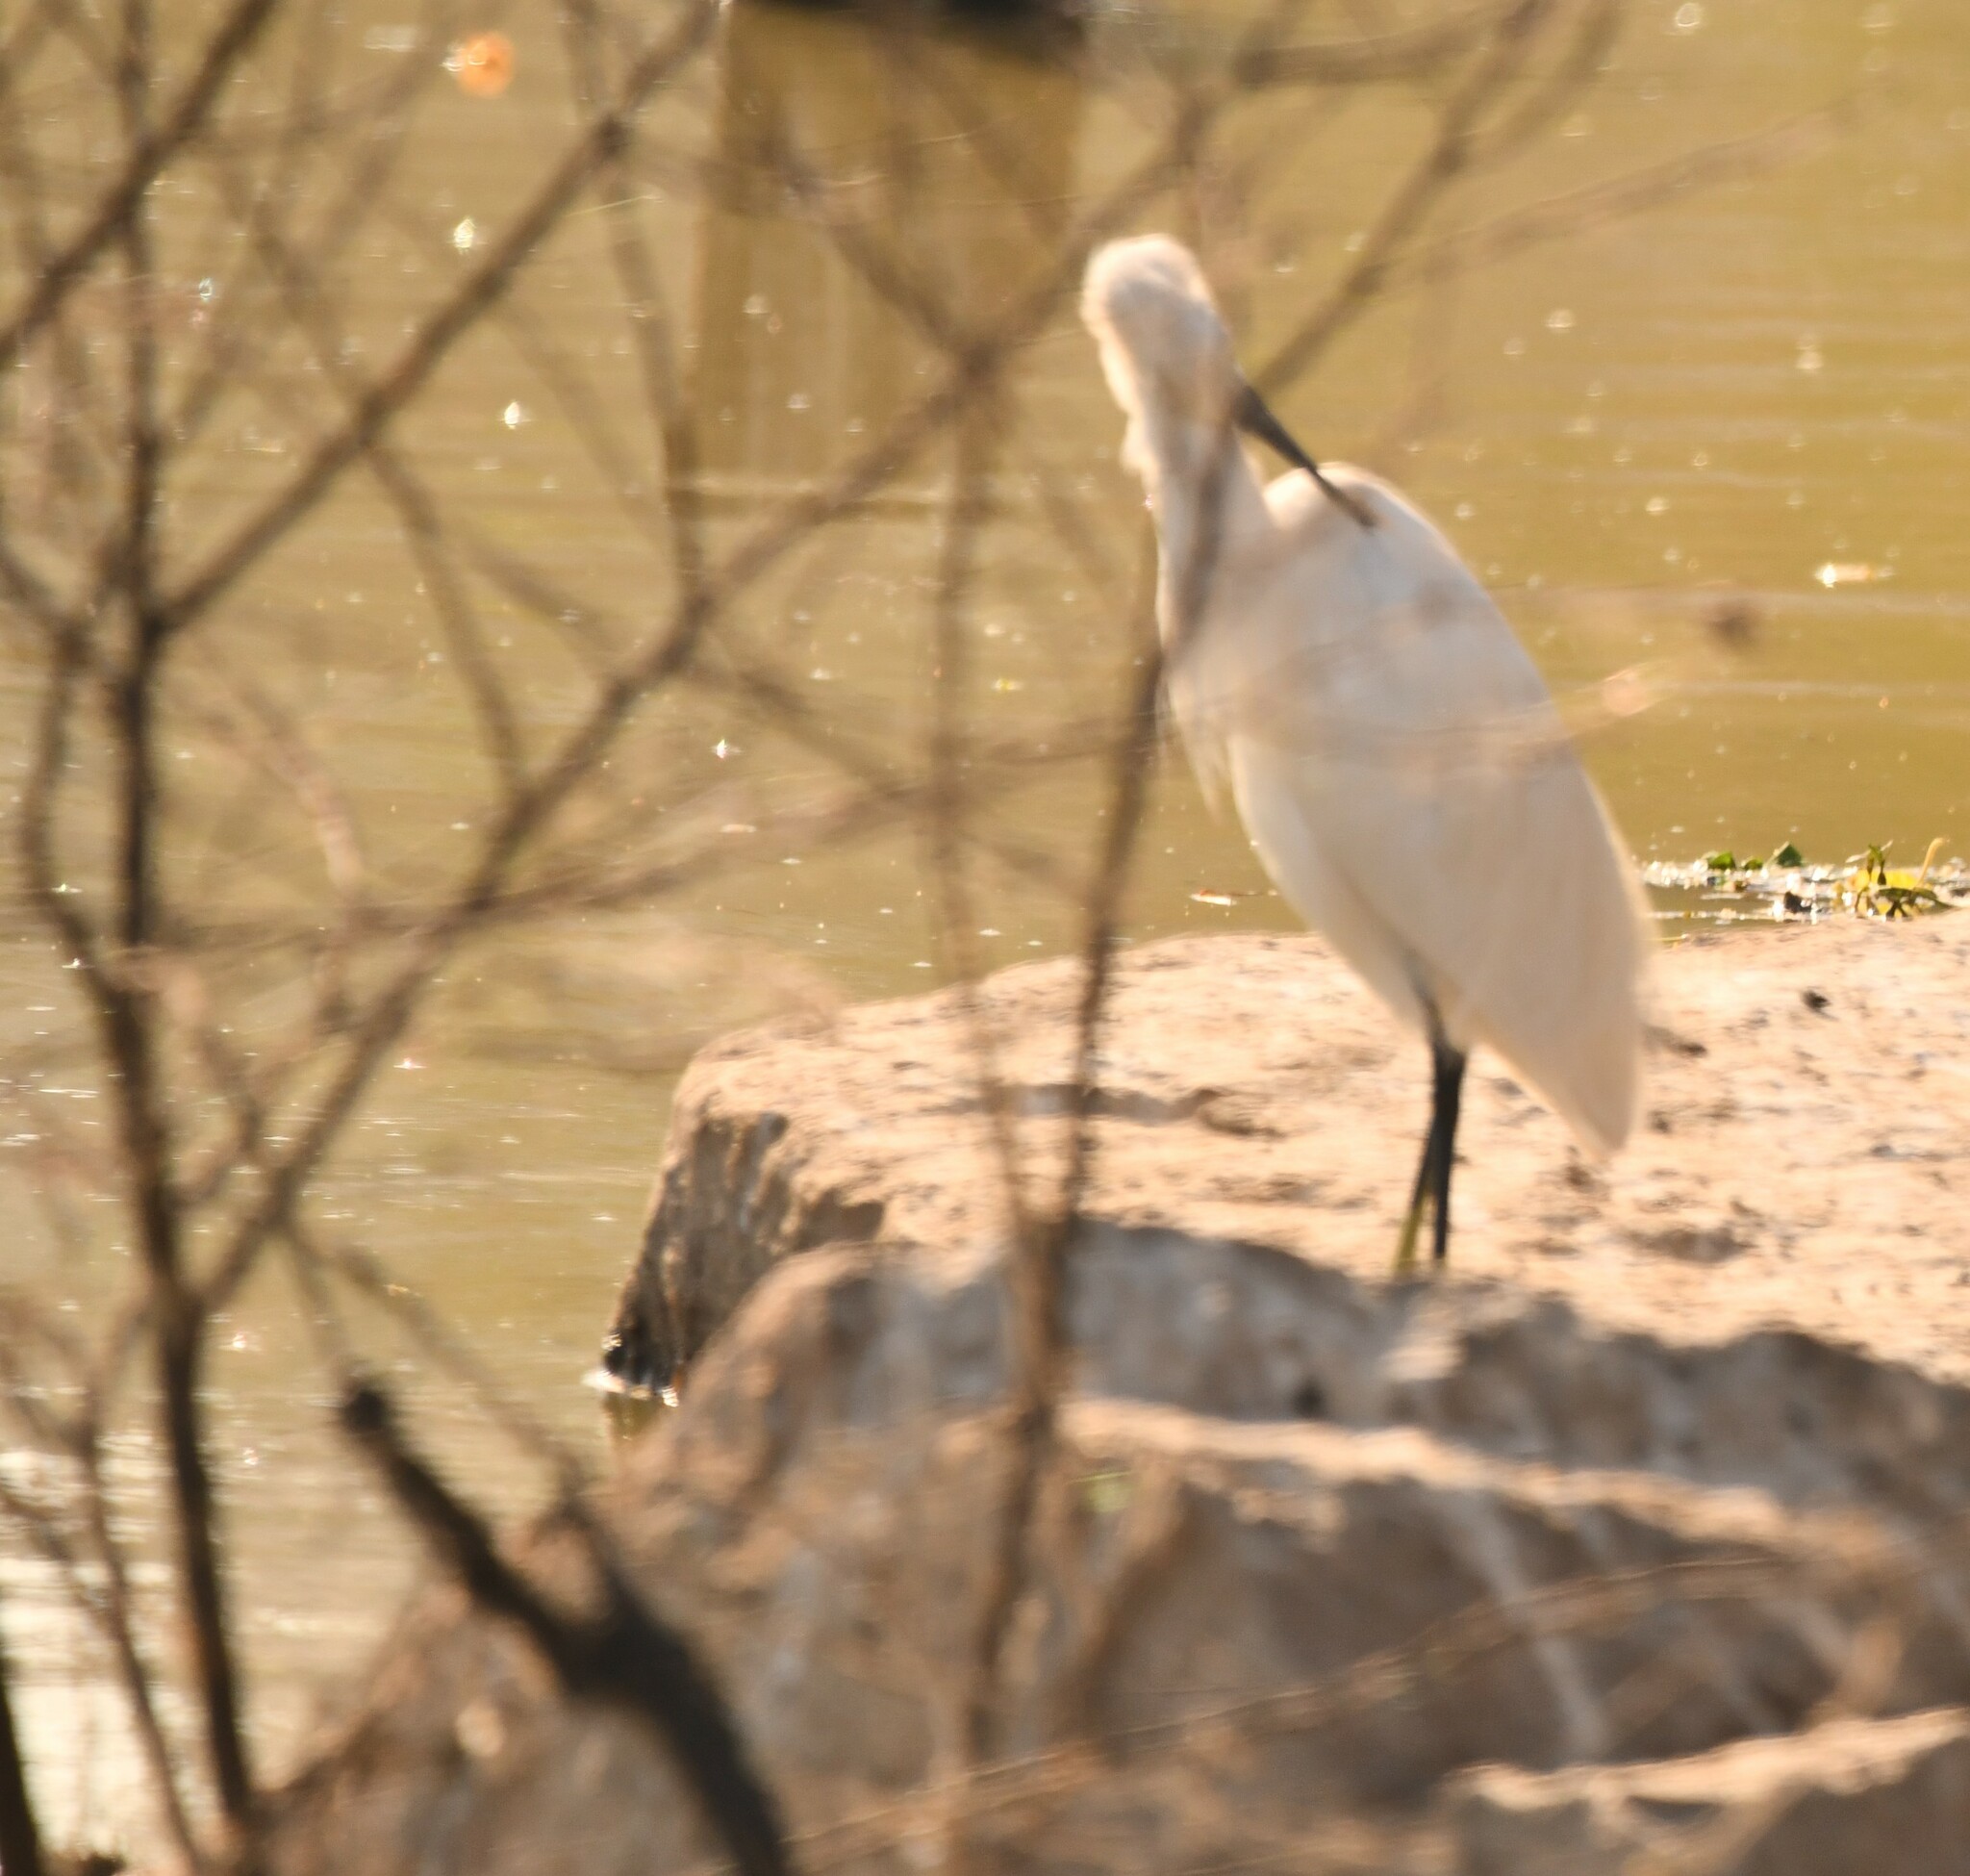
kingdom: Animalia
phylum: Chordata
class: Aves
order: Pelecaniformes
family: Ardeidae
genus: Egretta
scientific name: Egretta garzetta
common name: Little egret
